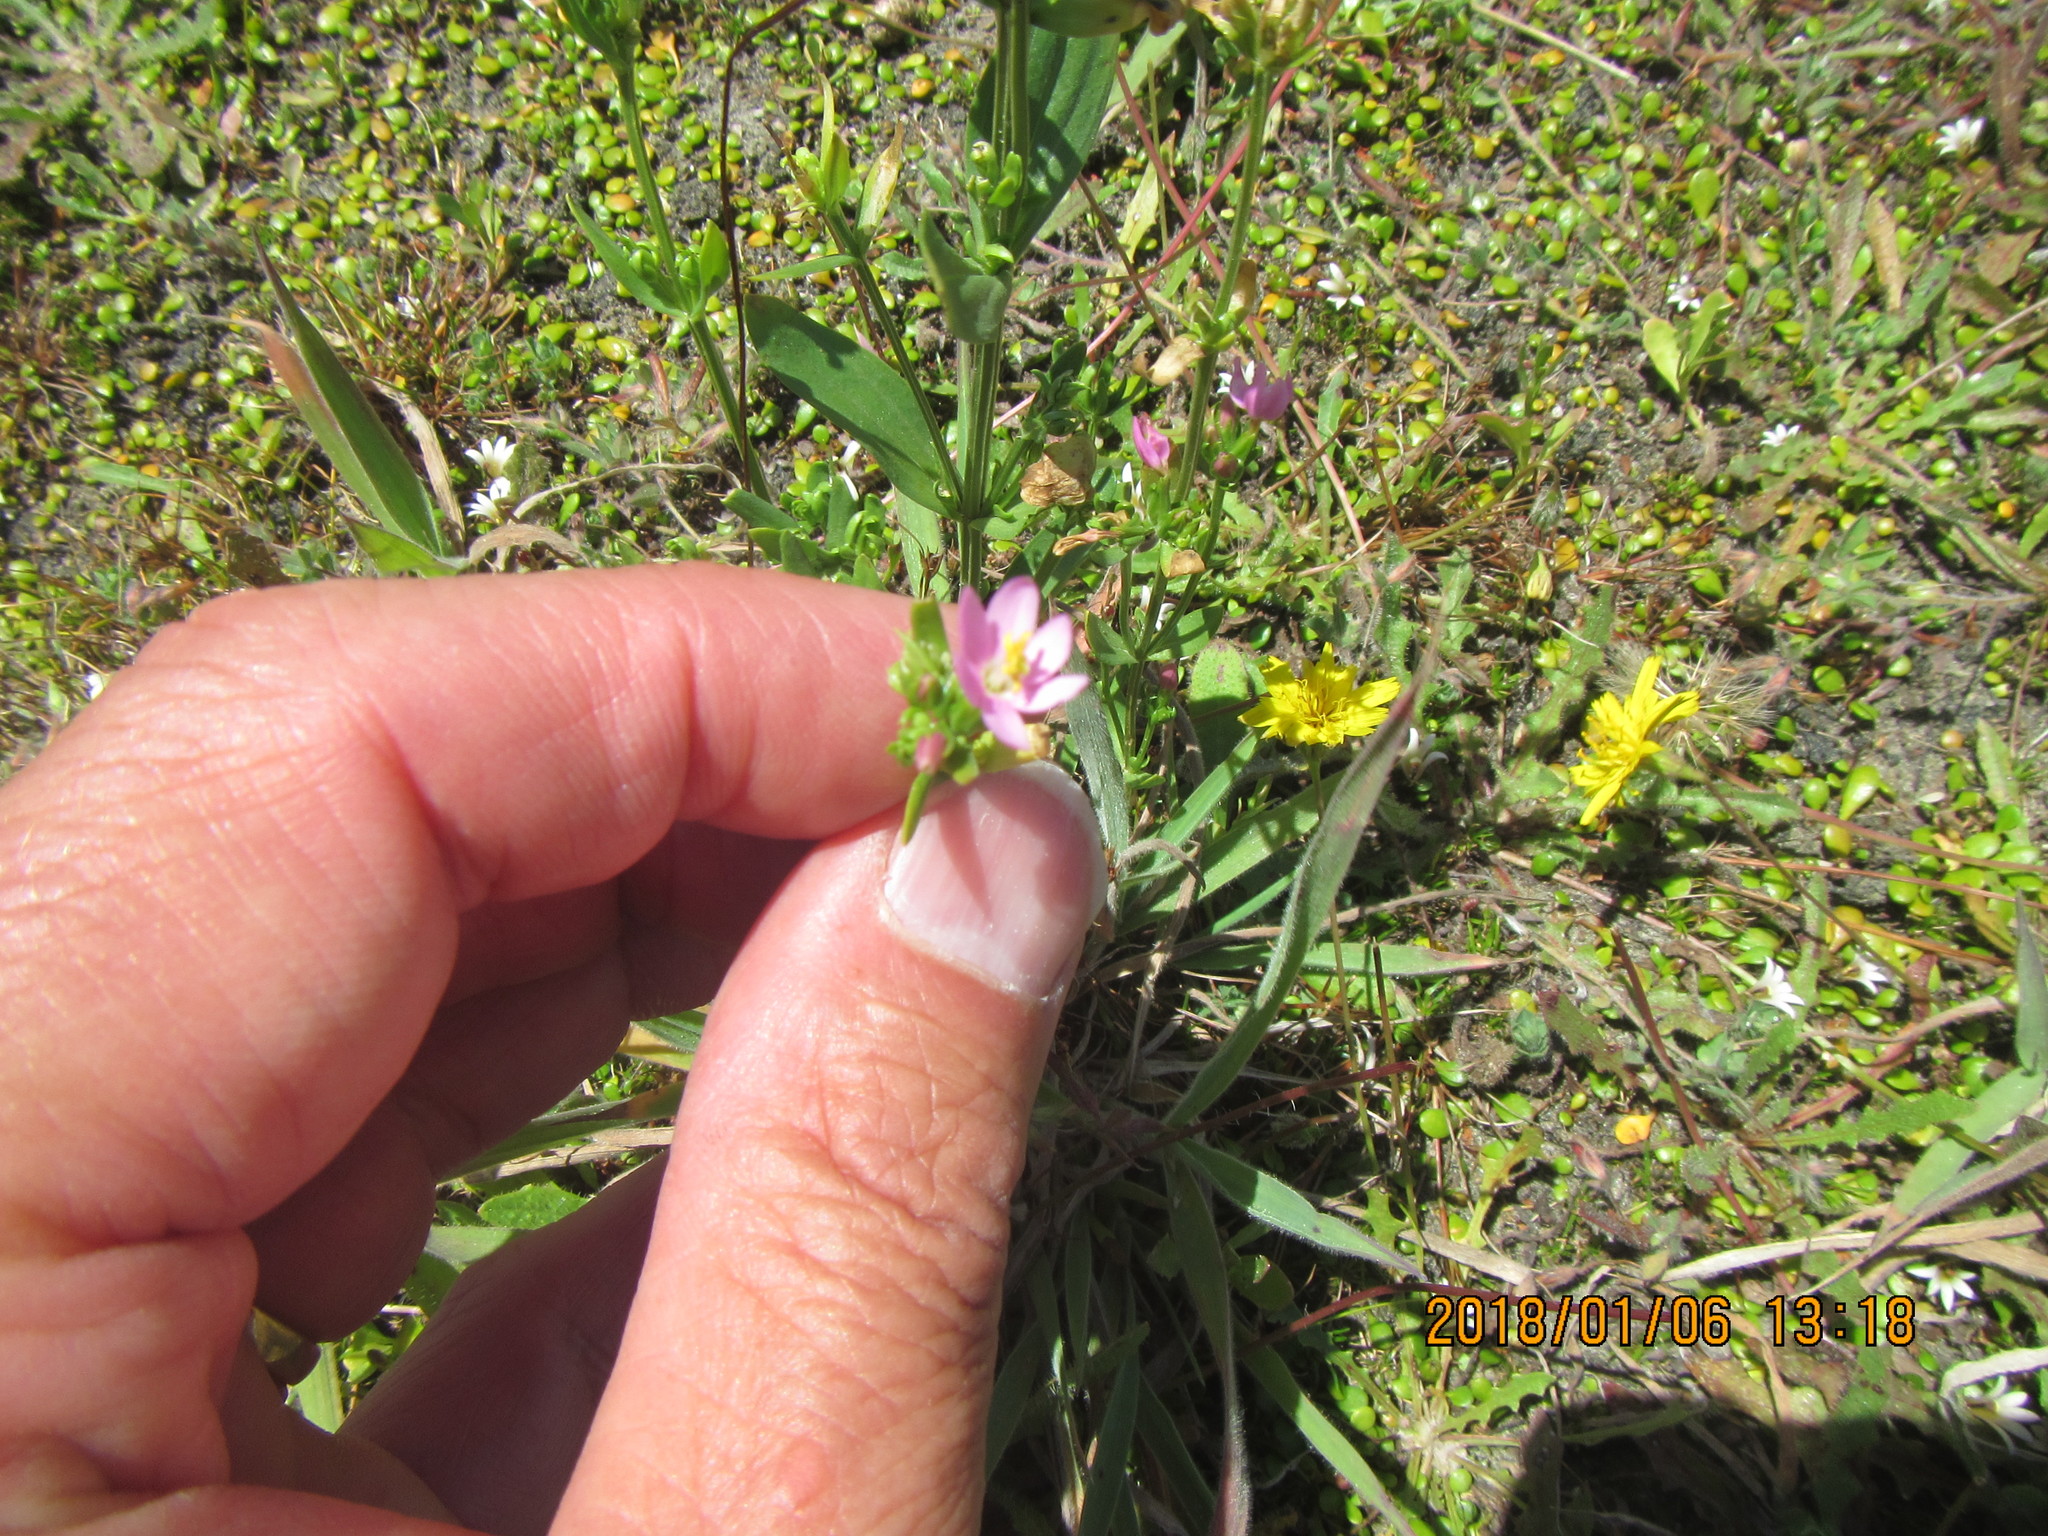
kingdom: Plantae
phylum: Tracheophyta
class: Magnoliopsida
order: Gentianales
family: Gentianaceae
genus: Centaurium
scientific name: Centaurium erythraea
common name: Common centaury
